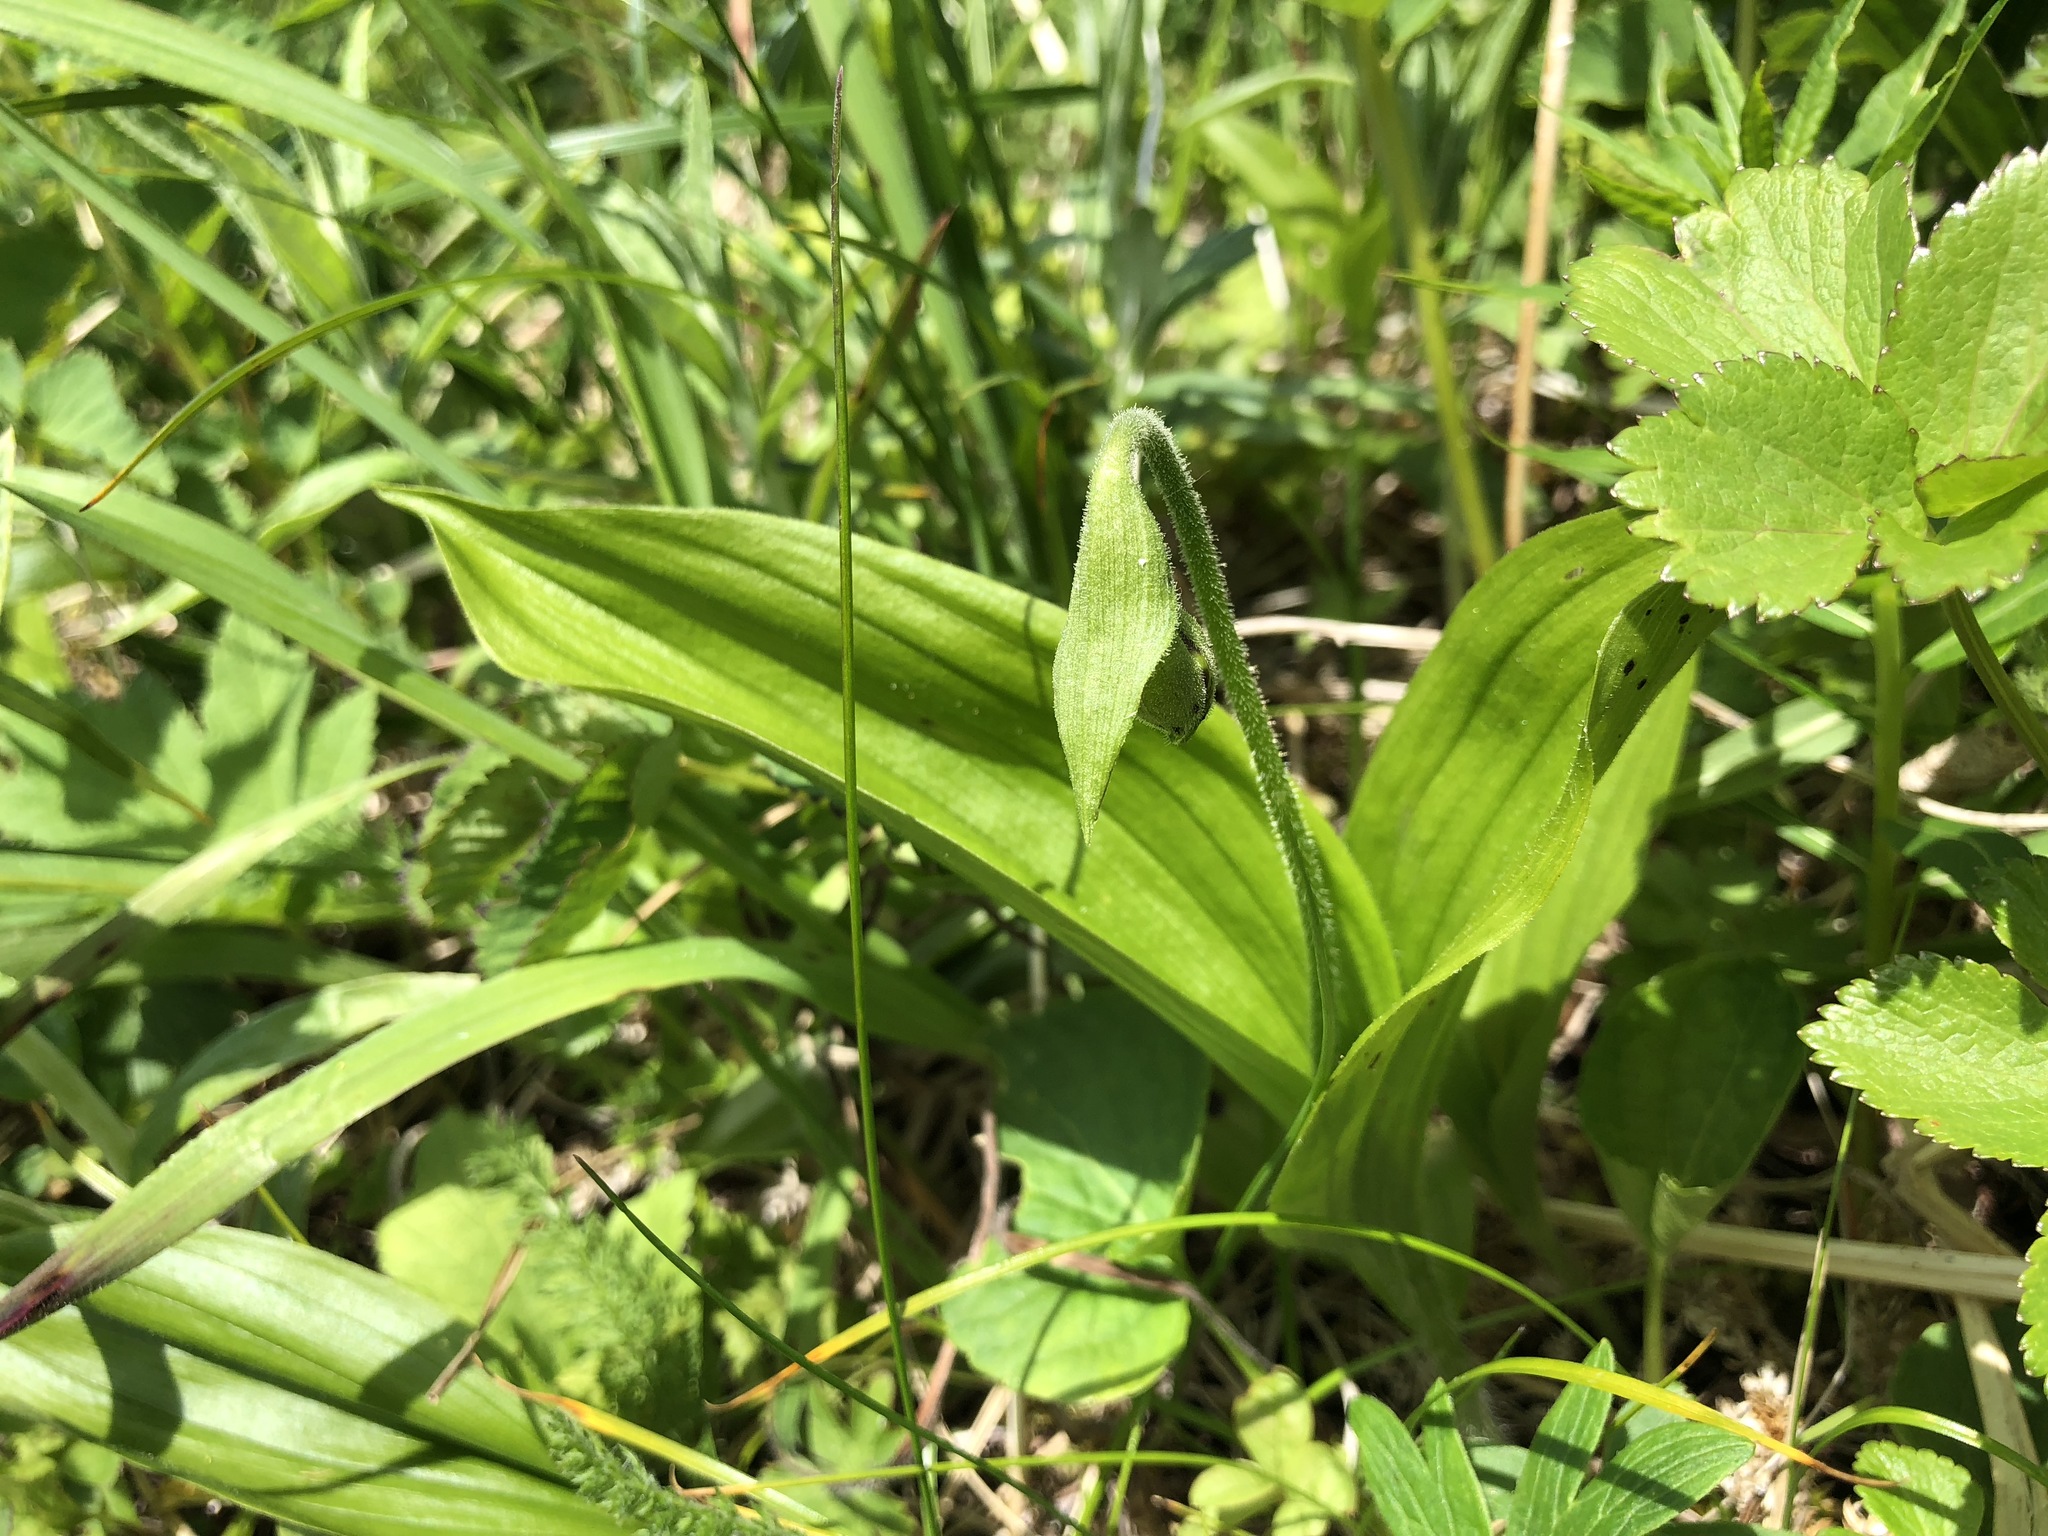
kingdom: Plantae
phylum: Tracheophyta
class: Liliopsida
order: Asparagales
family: Orchidaceae
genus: Cypripedium
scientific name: Cypripedium yatabeanum
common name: Spotted lady's slipper
